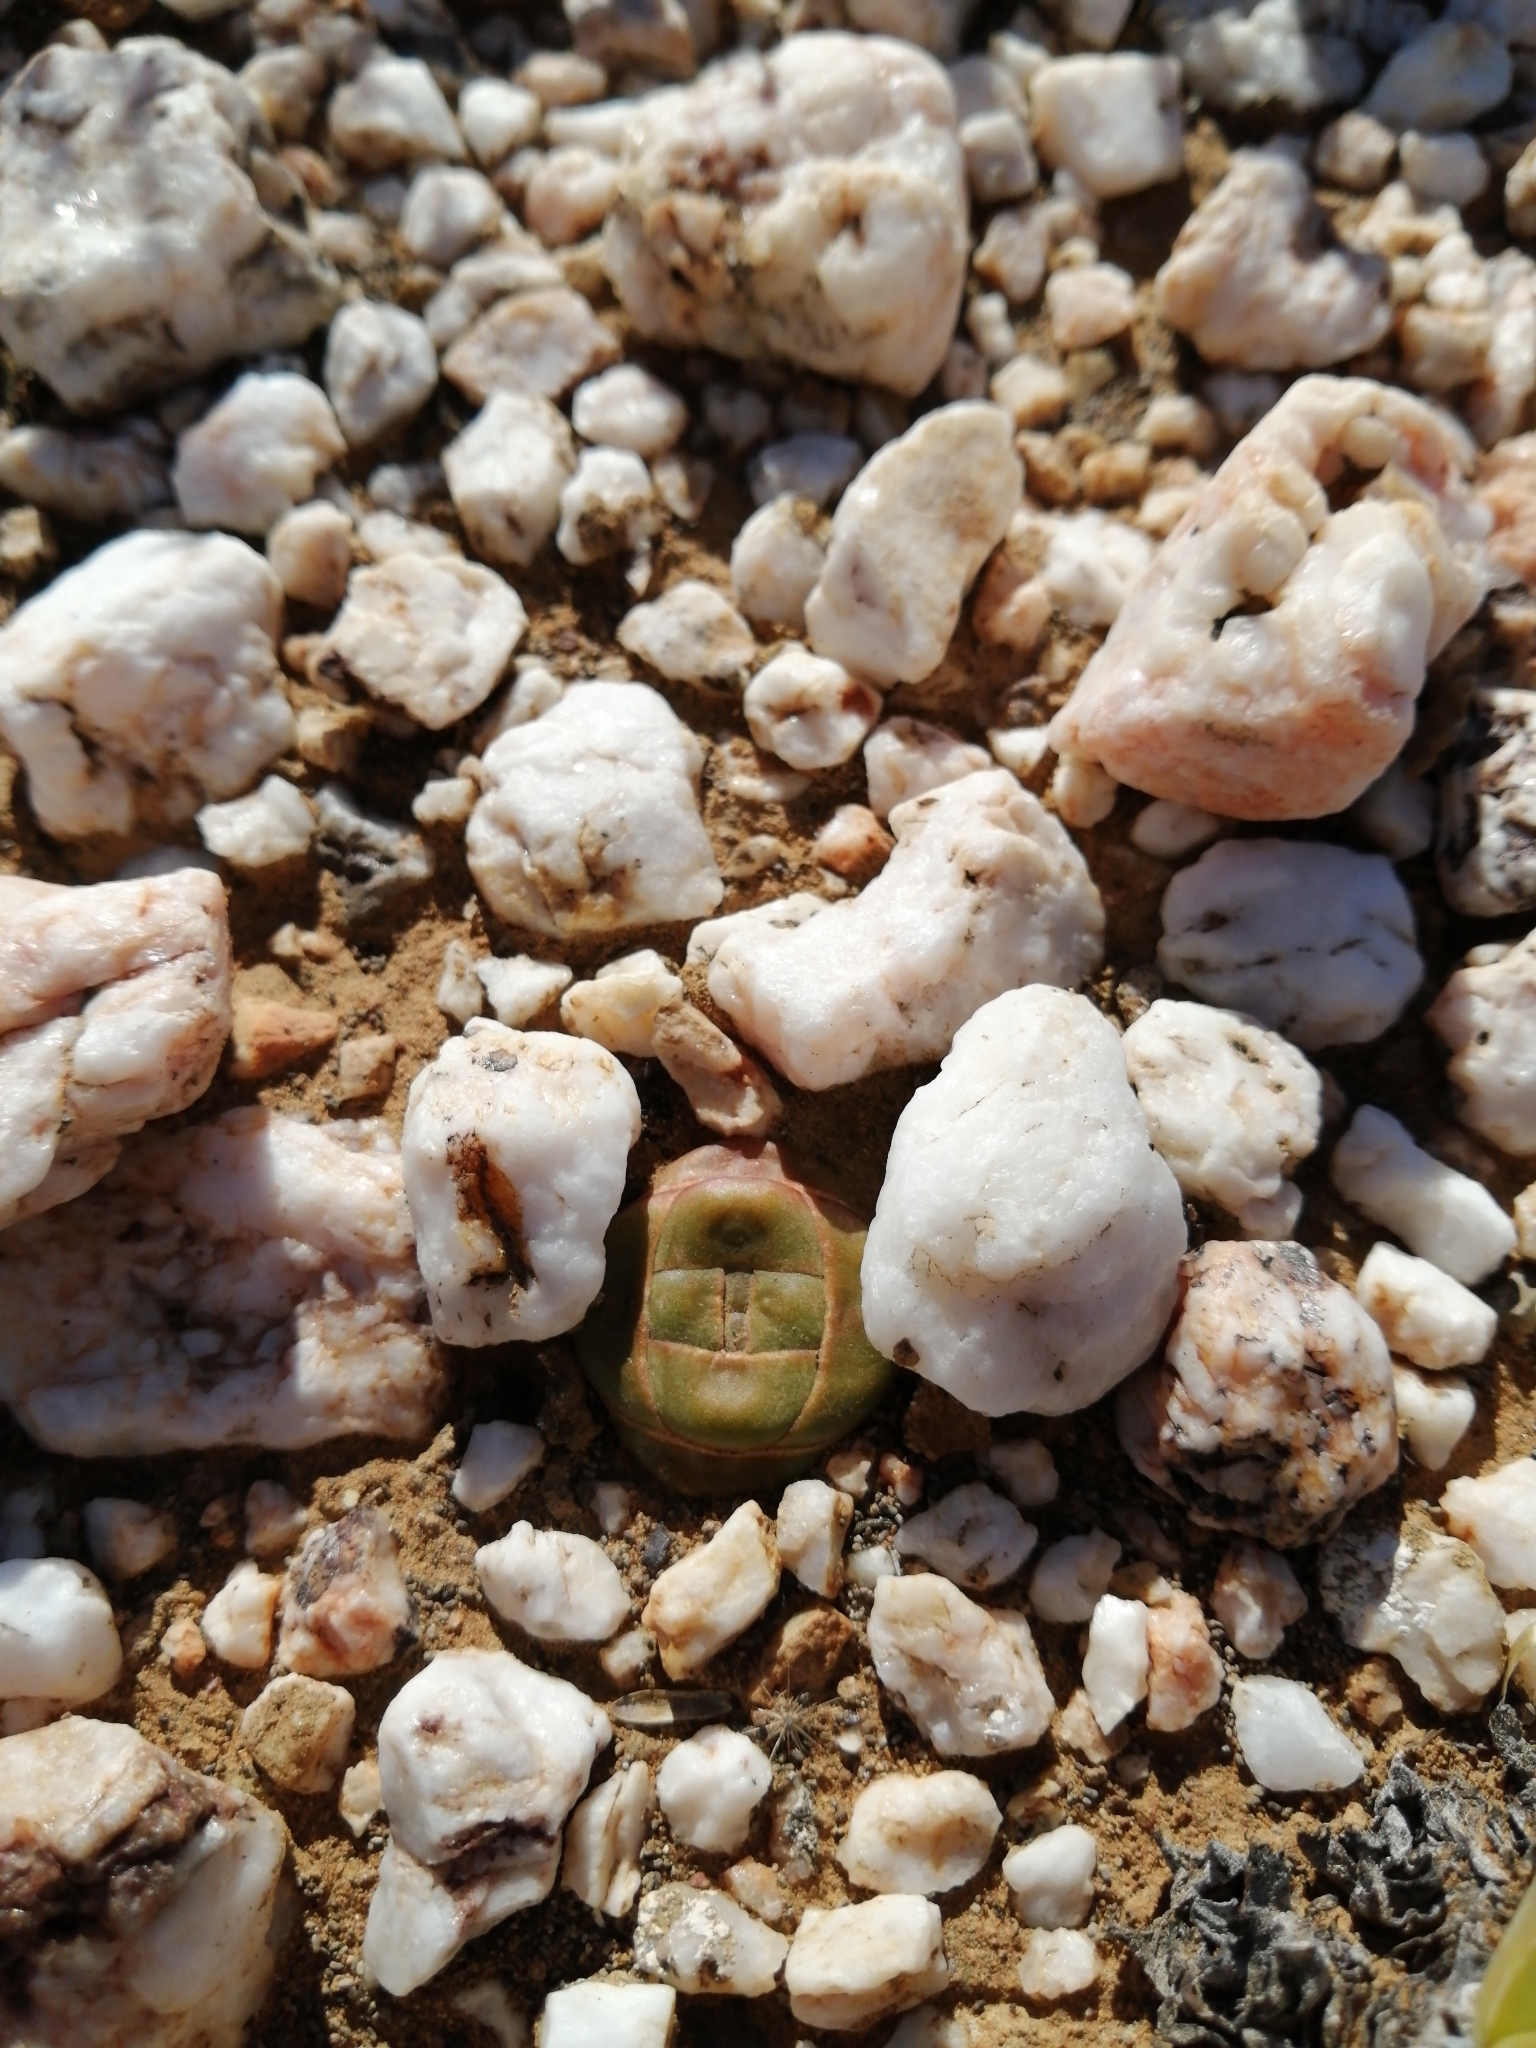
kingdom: Plantae
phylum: Tracheophyta
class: Magnoliopsida
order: Saxifragales
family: Crassulaceae
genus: Crassula
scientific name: Crassula columnaris
